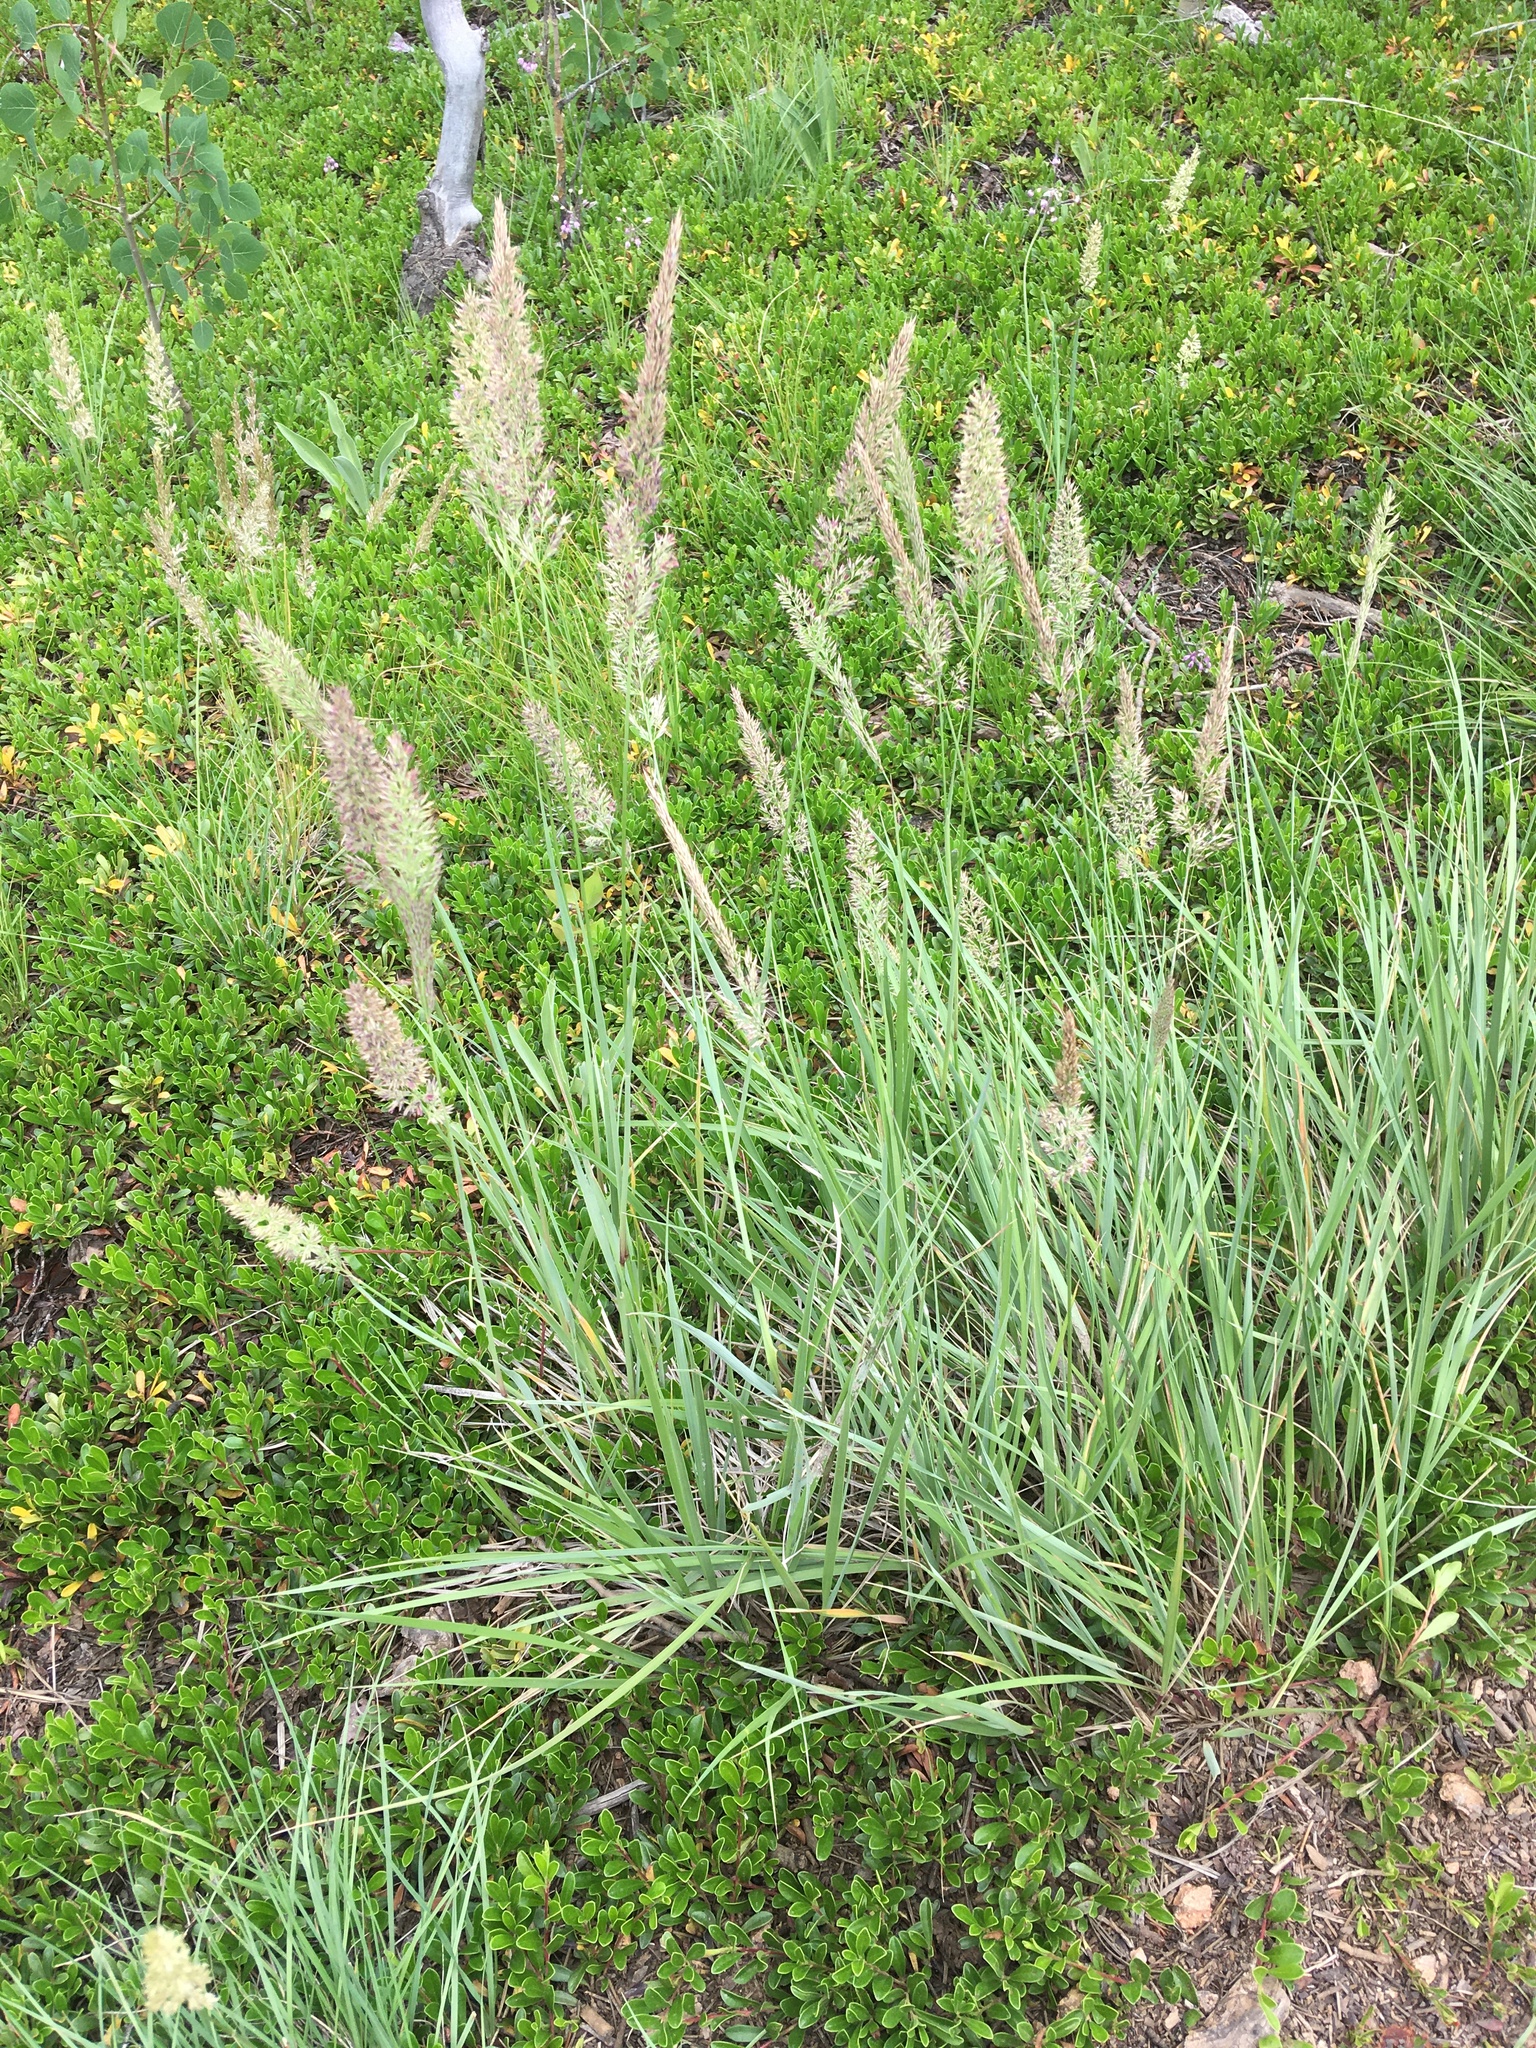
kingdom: Plantae
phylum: Tracheophyta
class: Liliopsida
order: Poales
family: Poaceae
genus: Koeleria
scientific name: Koeleria macrantha
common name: Crested hair-grass
